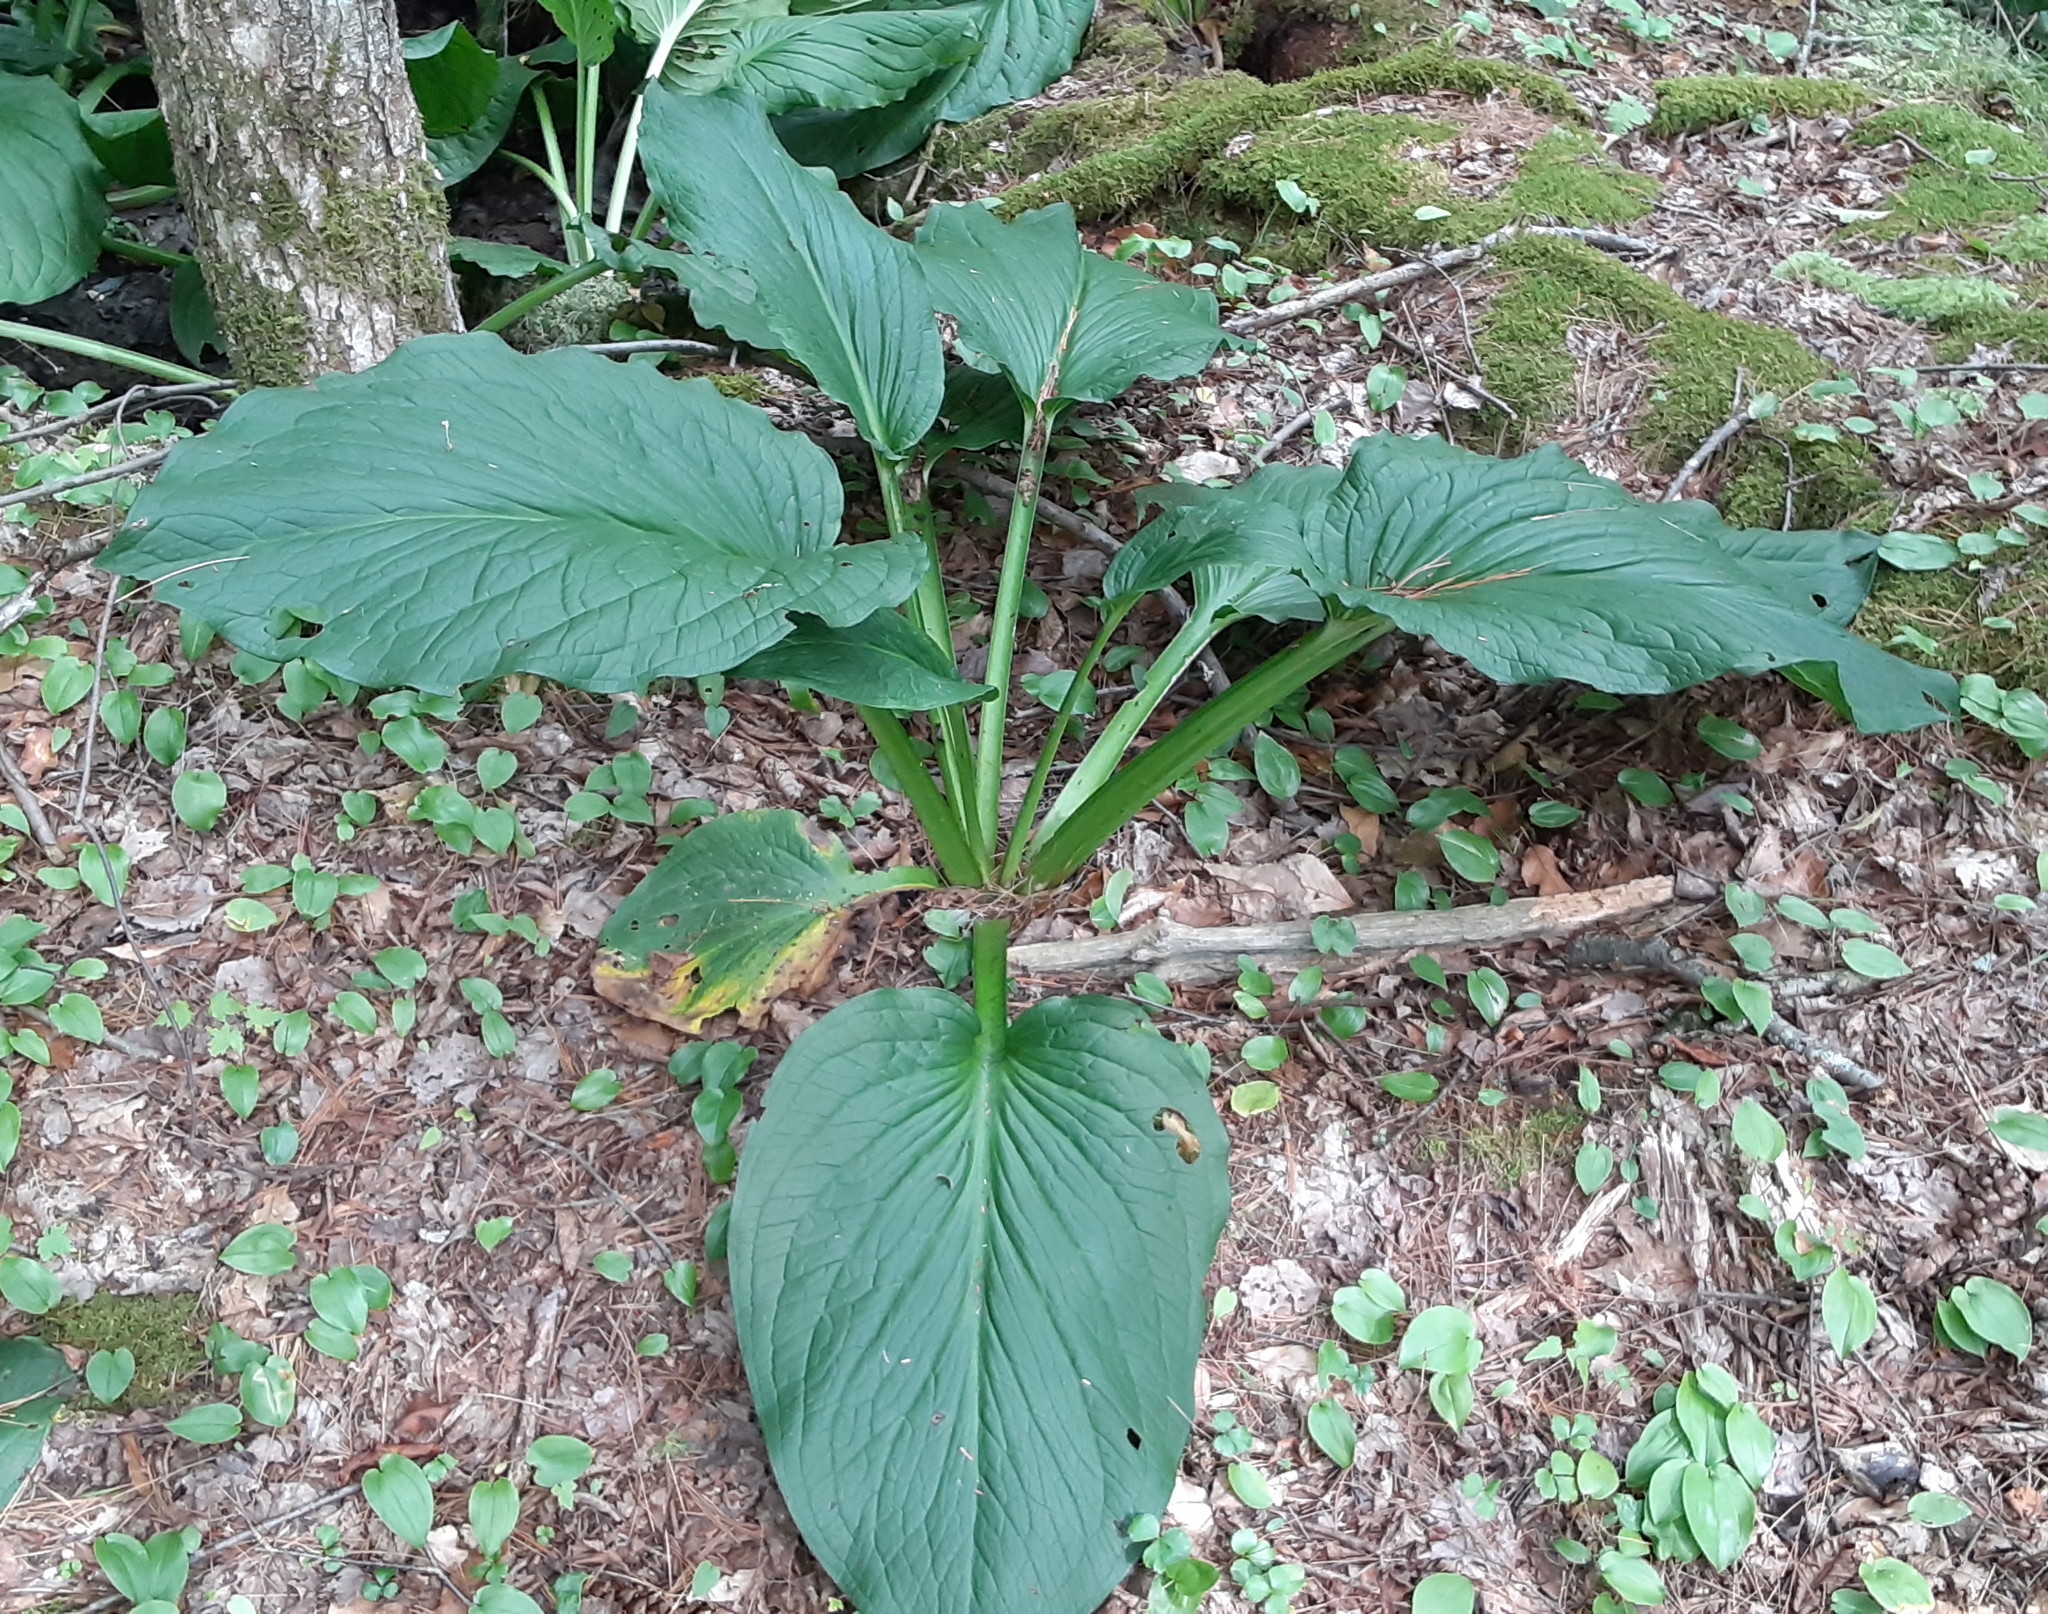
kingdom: Plantae
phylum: Tracheophyta
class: Liliopsida
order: Alismatales
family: Araceae
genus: Symplocarpus
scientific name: Symplocarpus foetidus
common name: Eastern skunk cabbage
